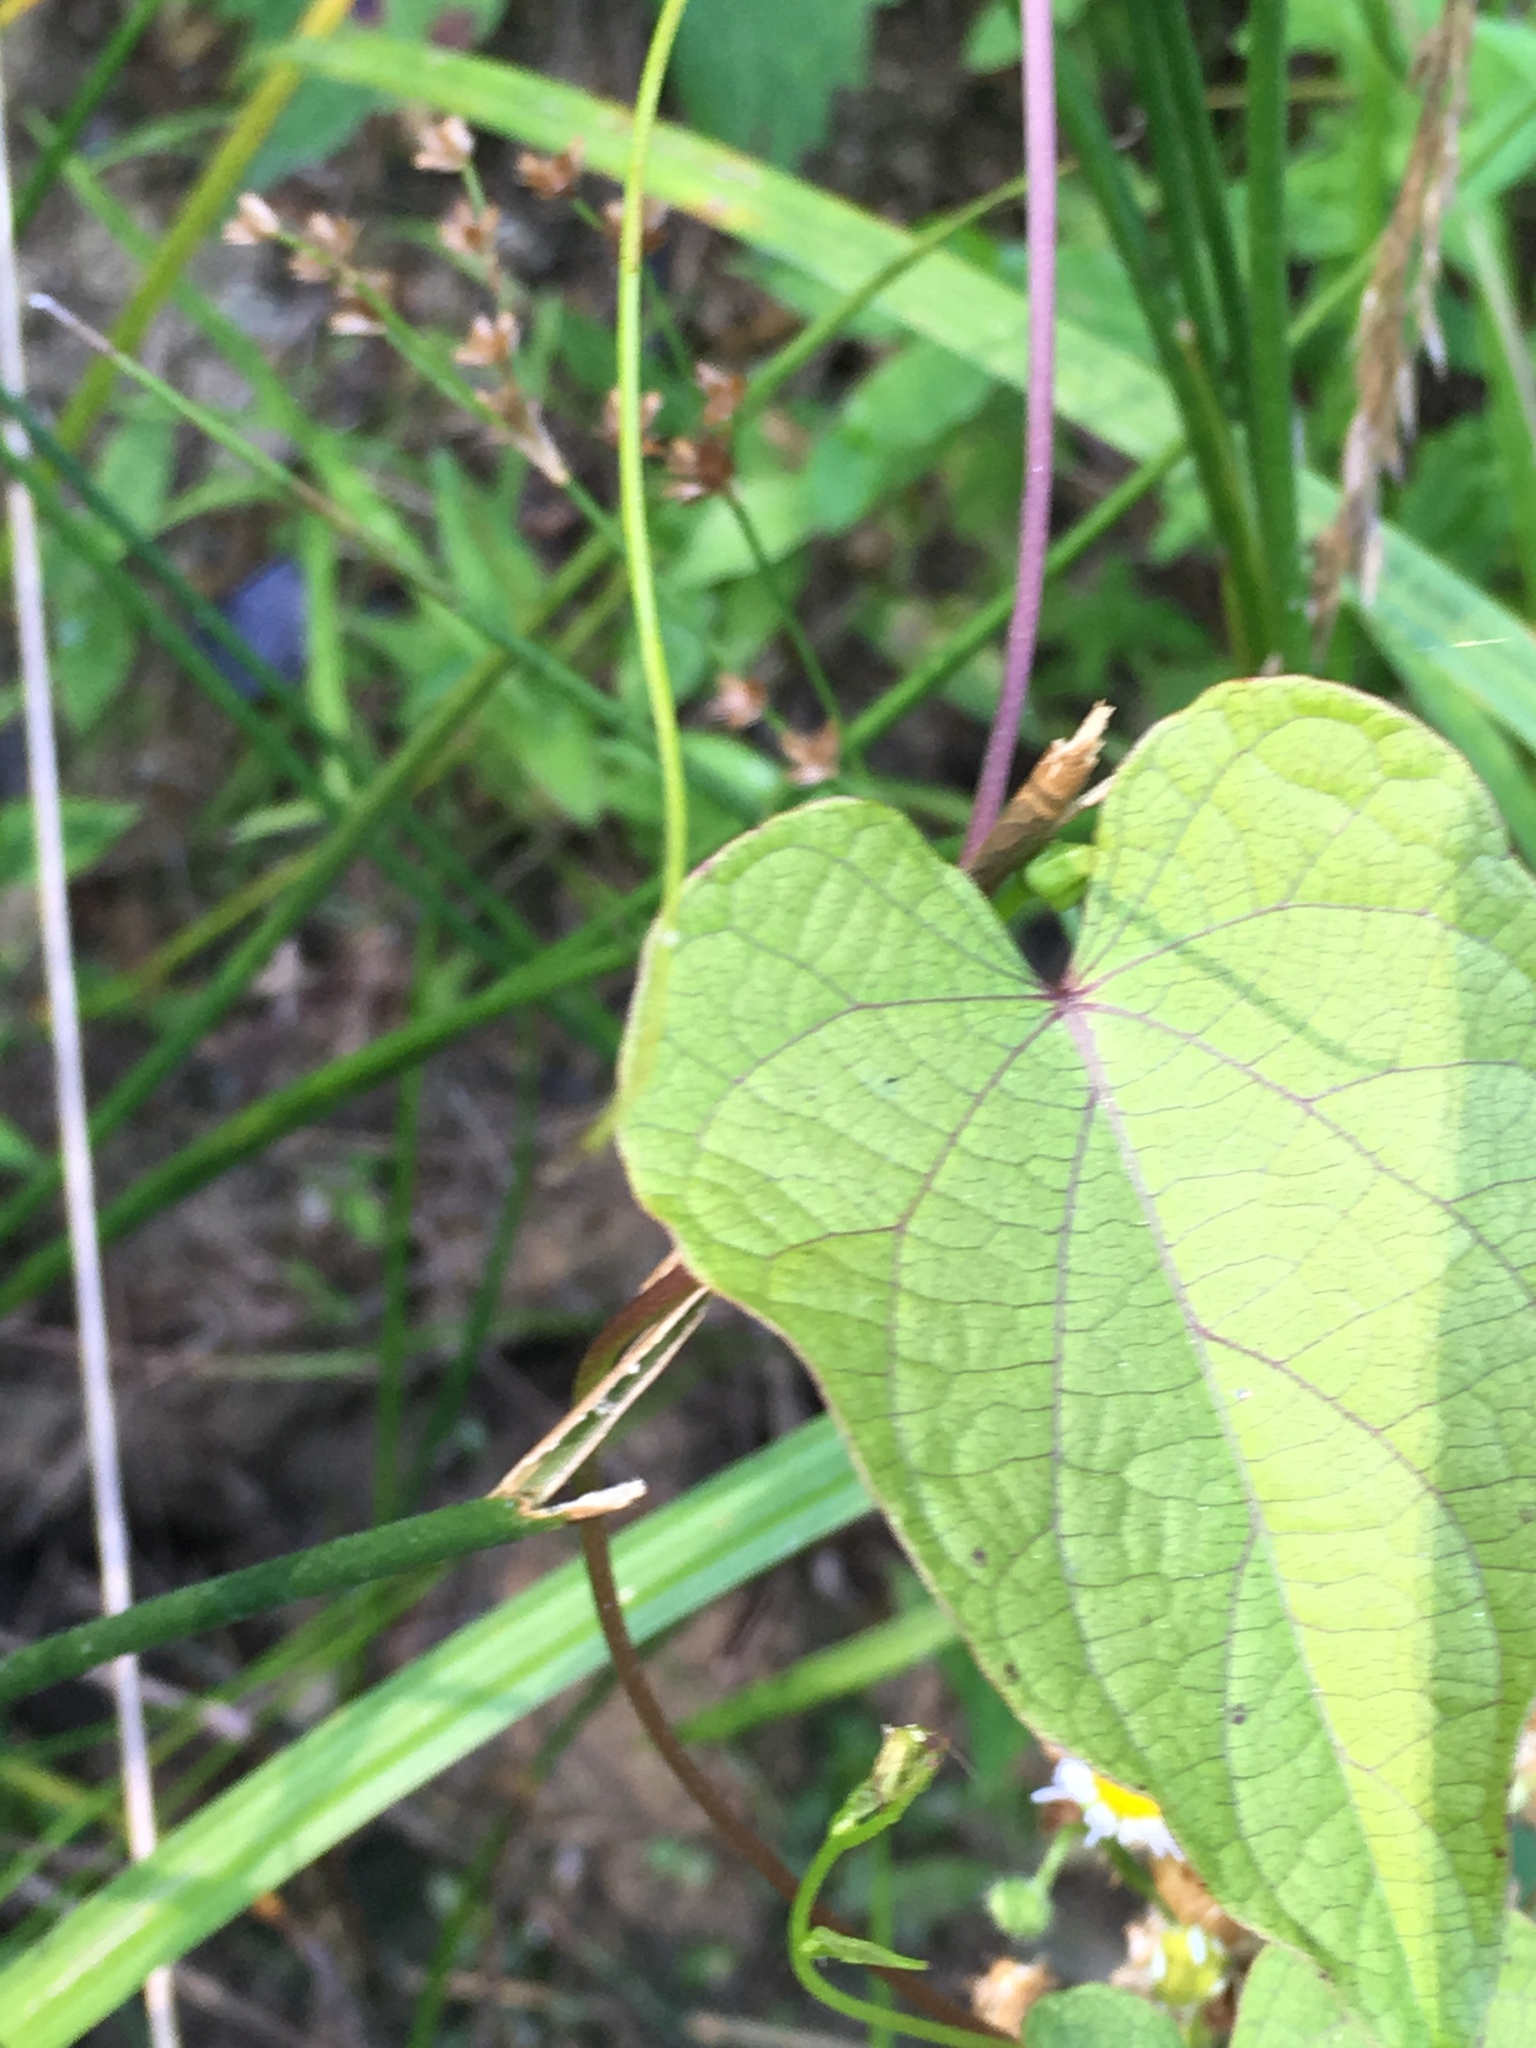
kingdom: Plantae
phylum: Tracheophyta
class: Magnoliopsida
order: Solanales
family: Convolvulaceae
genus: Ipomoea
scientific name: Ipomoea pandurata
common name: Man-of-the-earth
